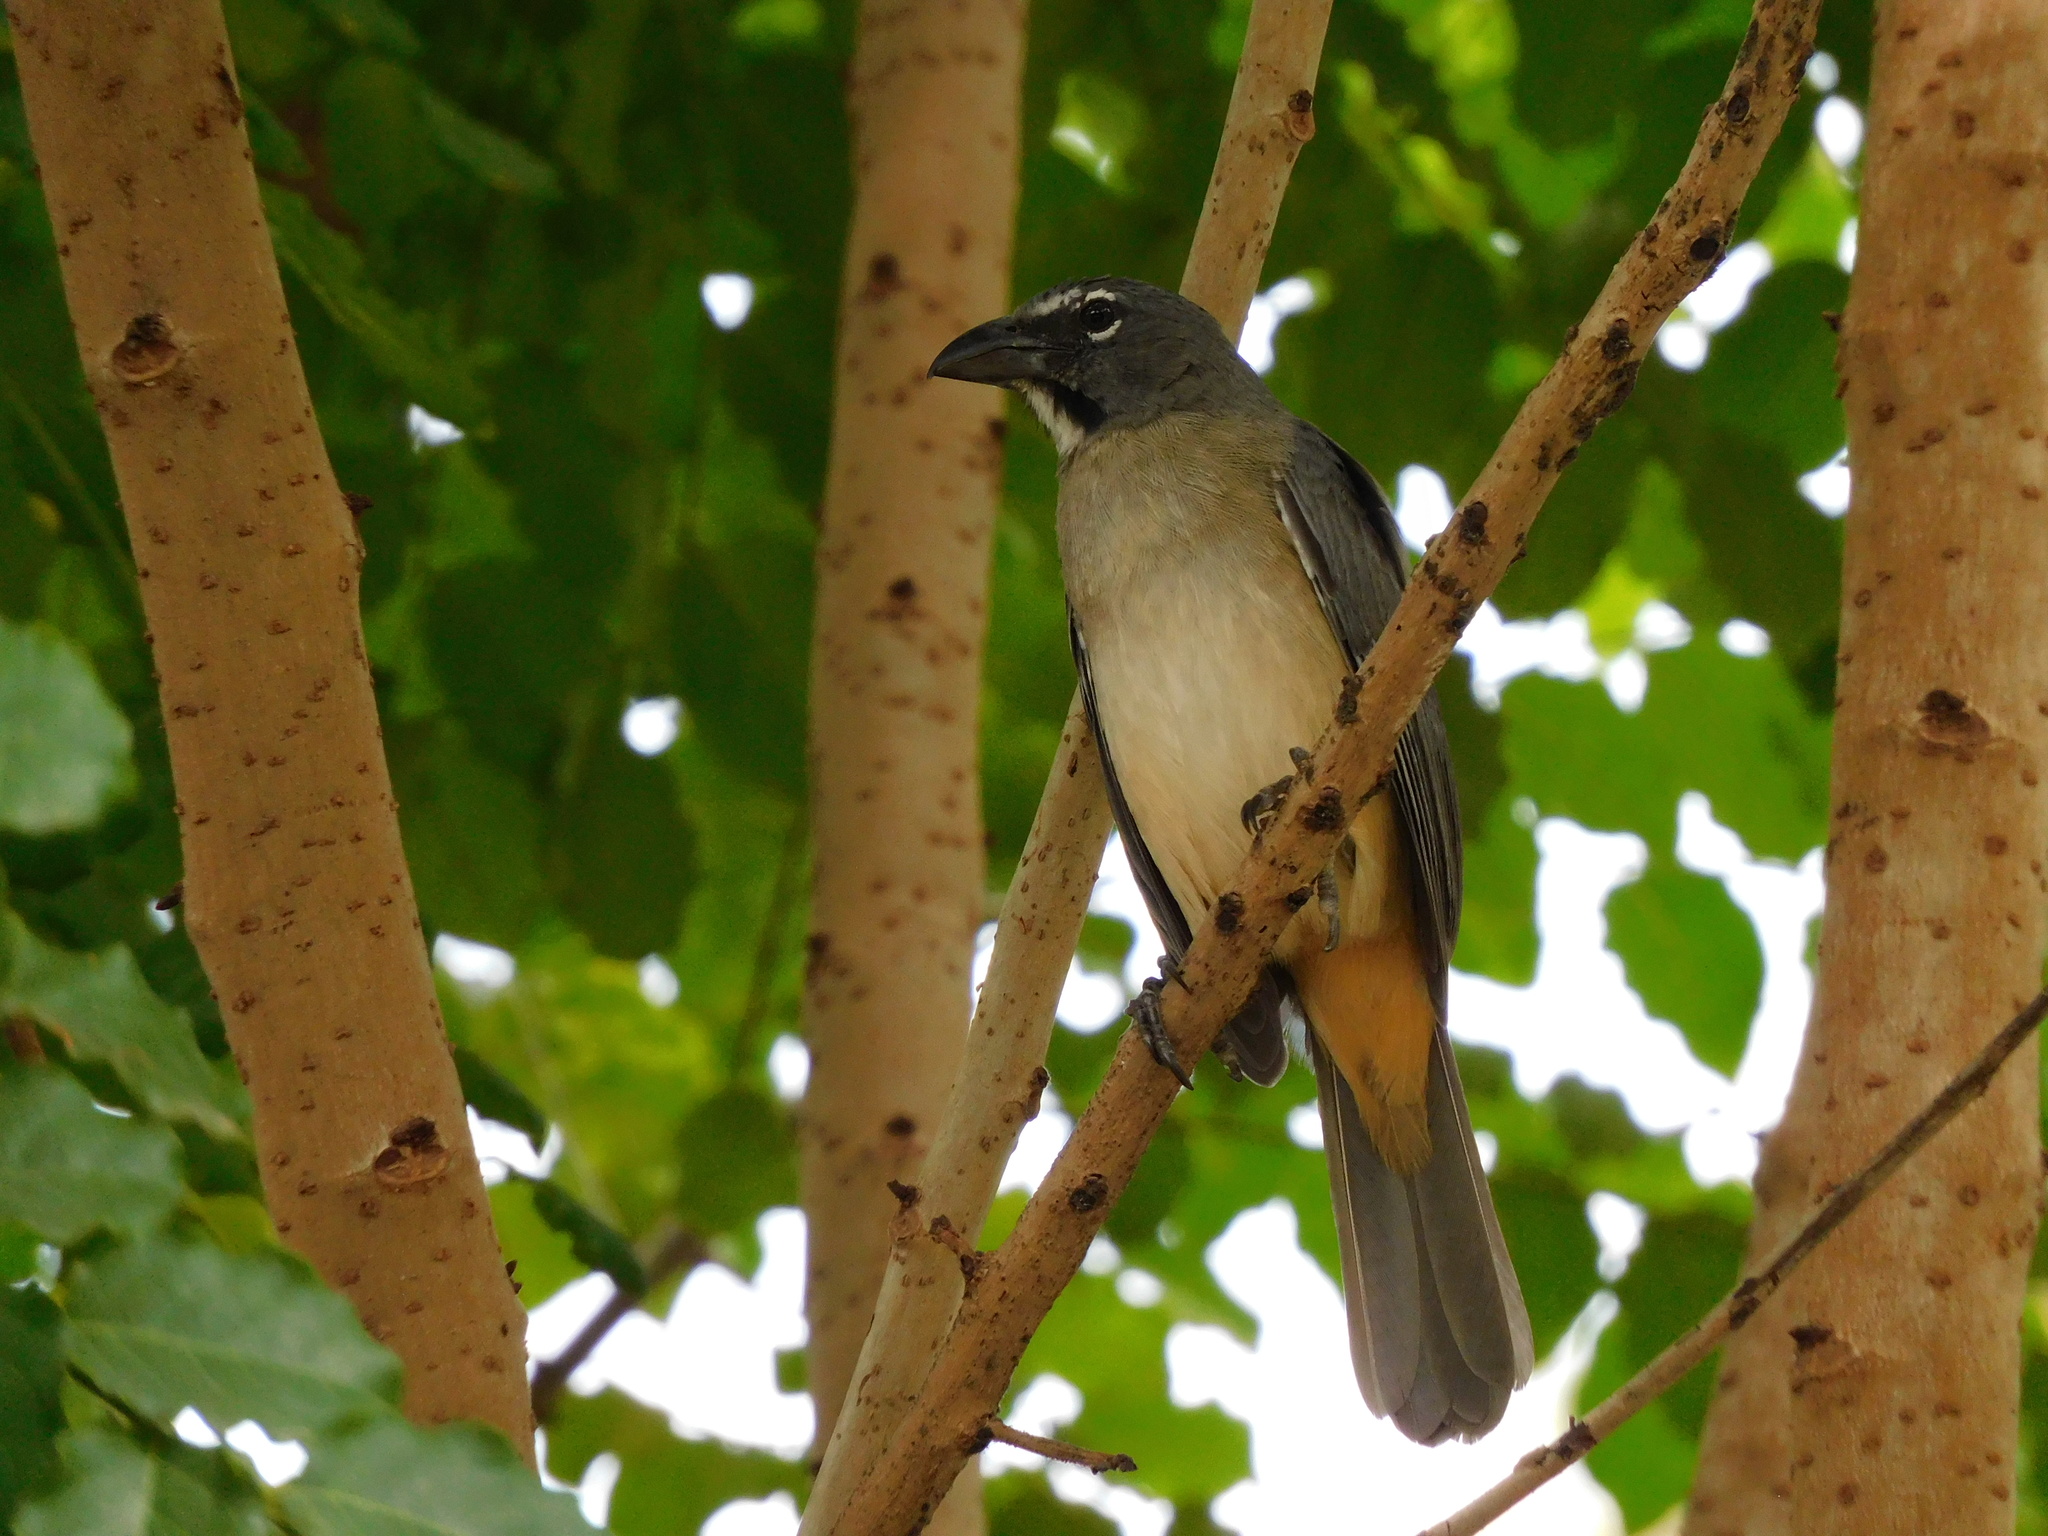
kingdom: Animalia
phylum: Chordata
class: Aves
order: Passeriformes
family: Thraupidae
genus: Saltator
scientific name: Saltator olivascens
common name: Caribbean grey saltator
